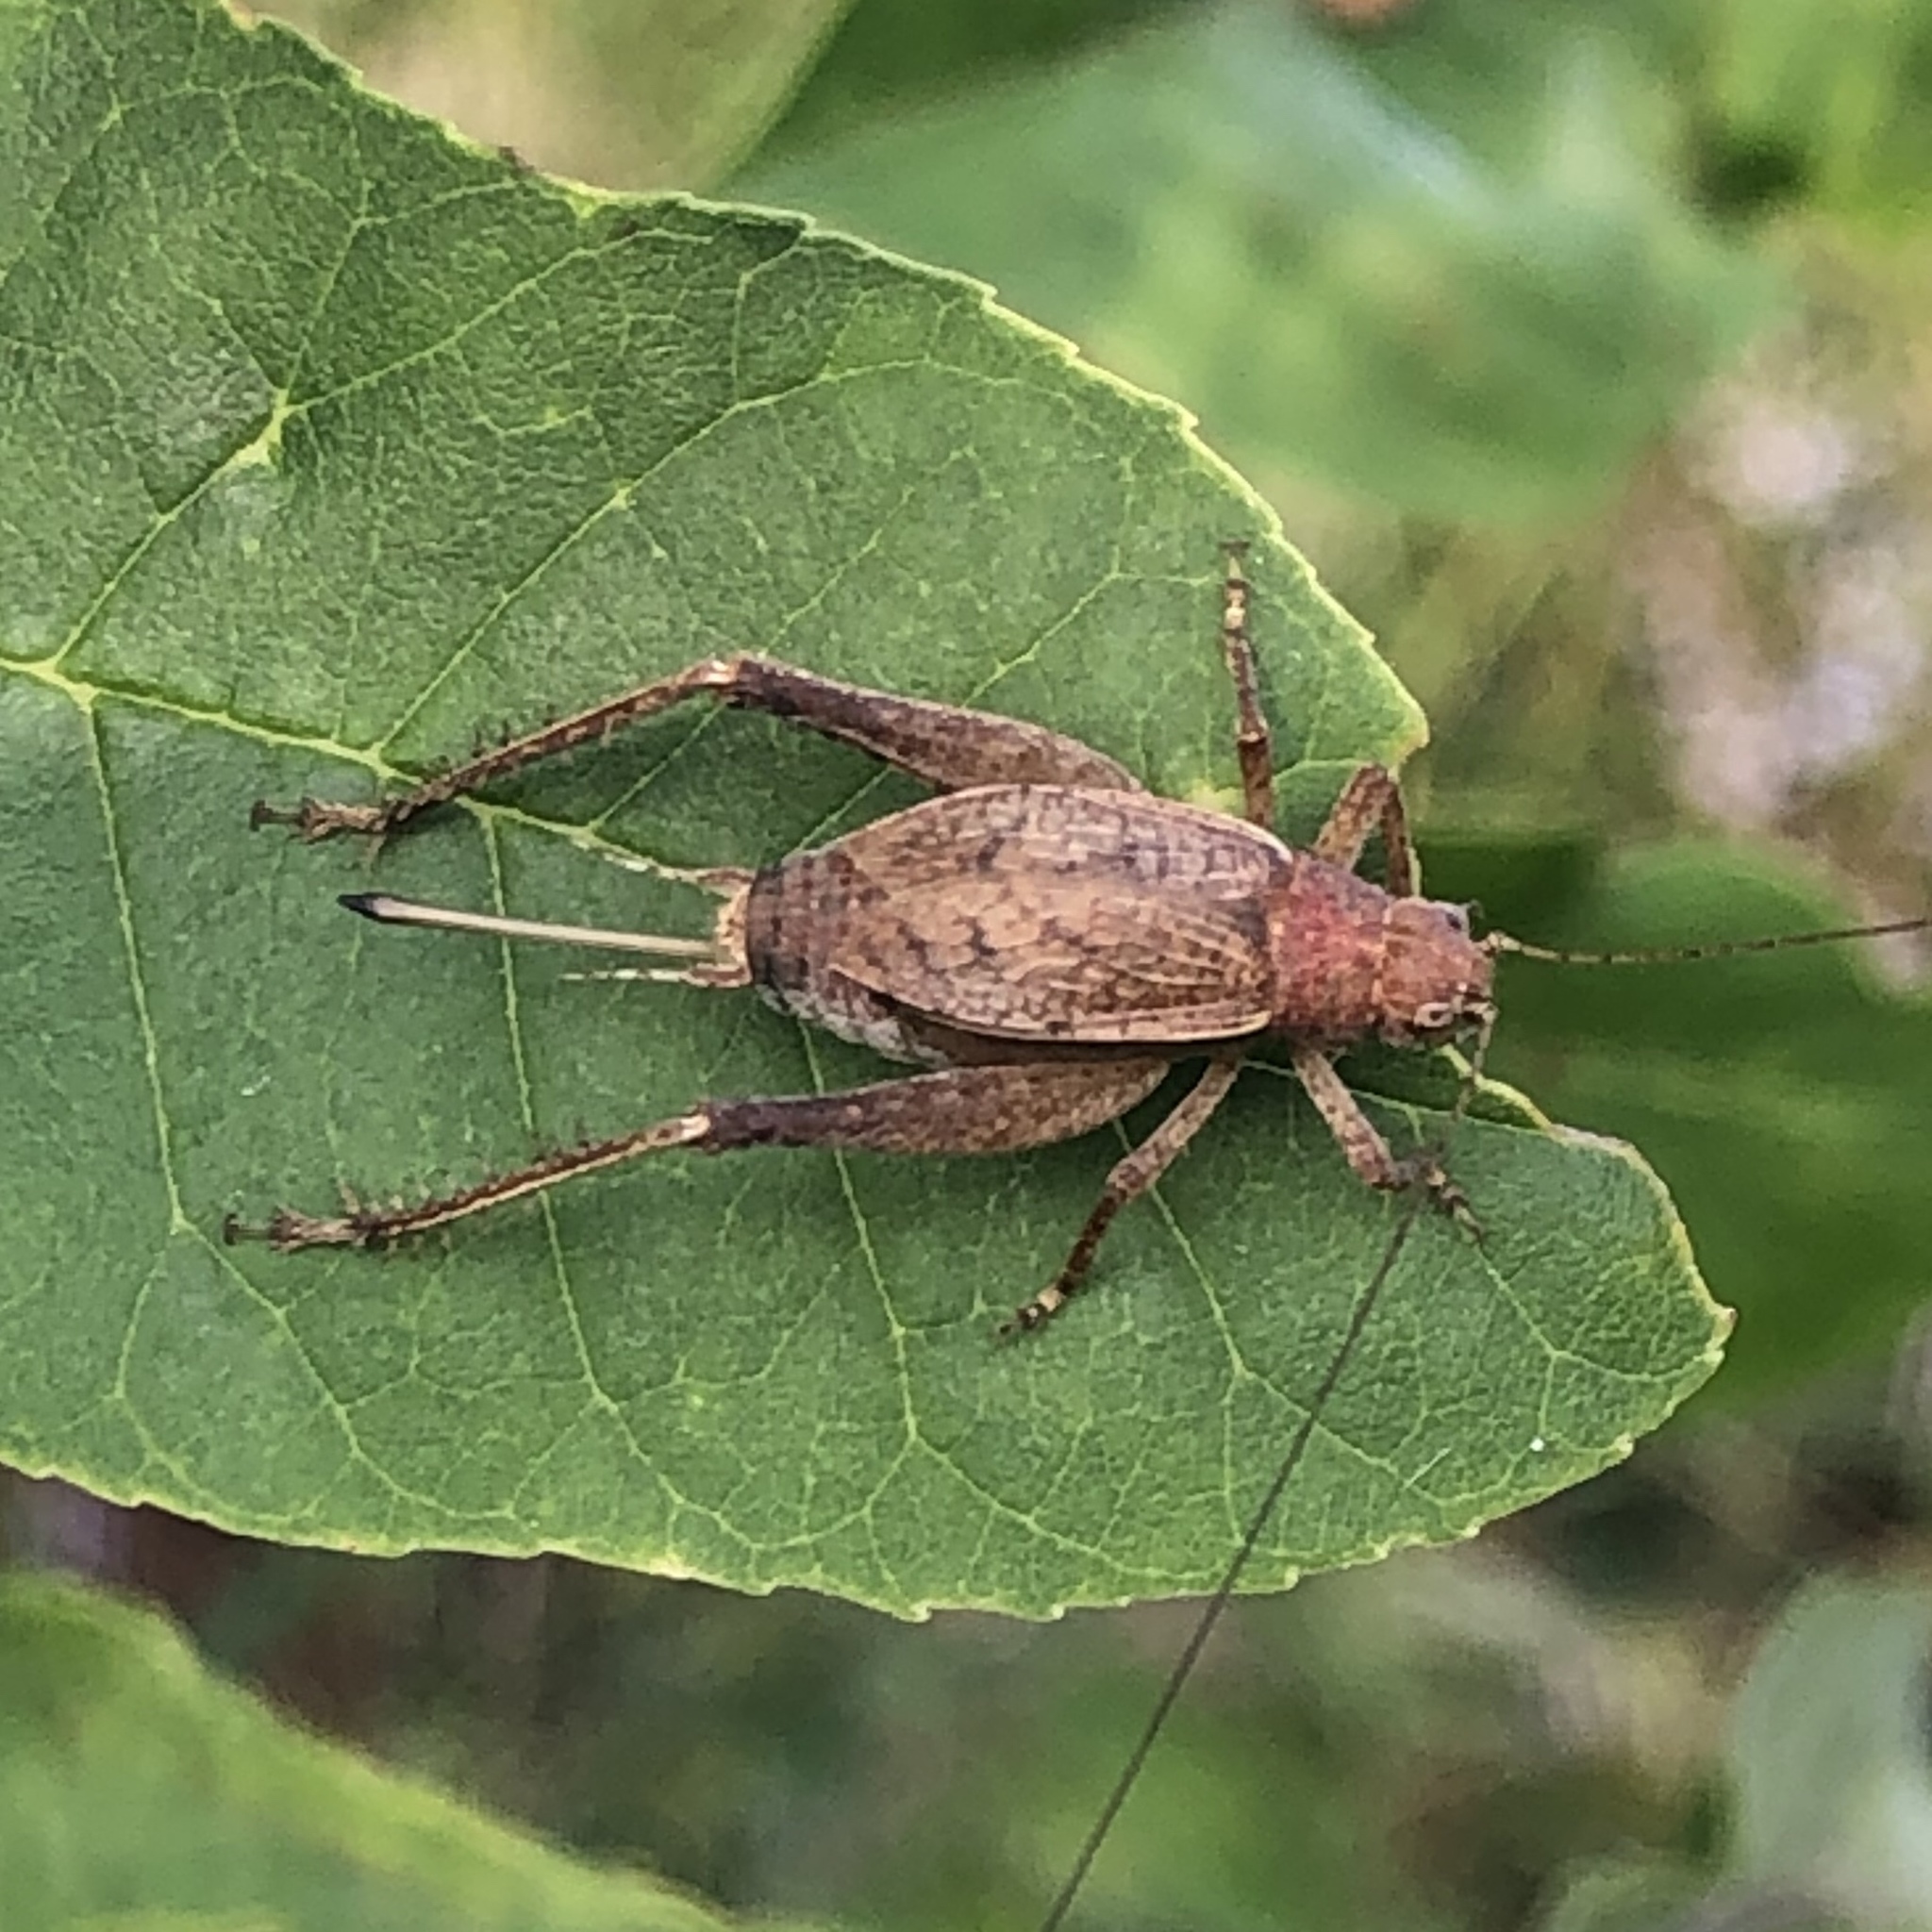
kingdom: Animalia
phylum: Arthropoda
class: Insecta
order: Orthoptera
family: Gryllidae
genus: Hapithus
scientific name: Hapithus agitator
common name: Restless bush cricket
